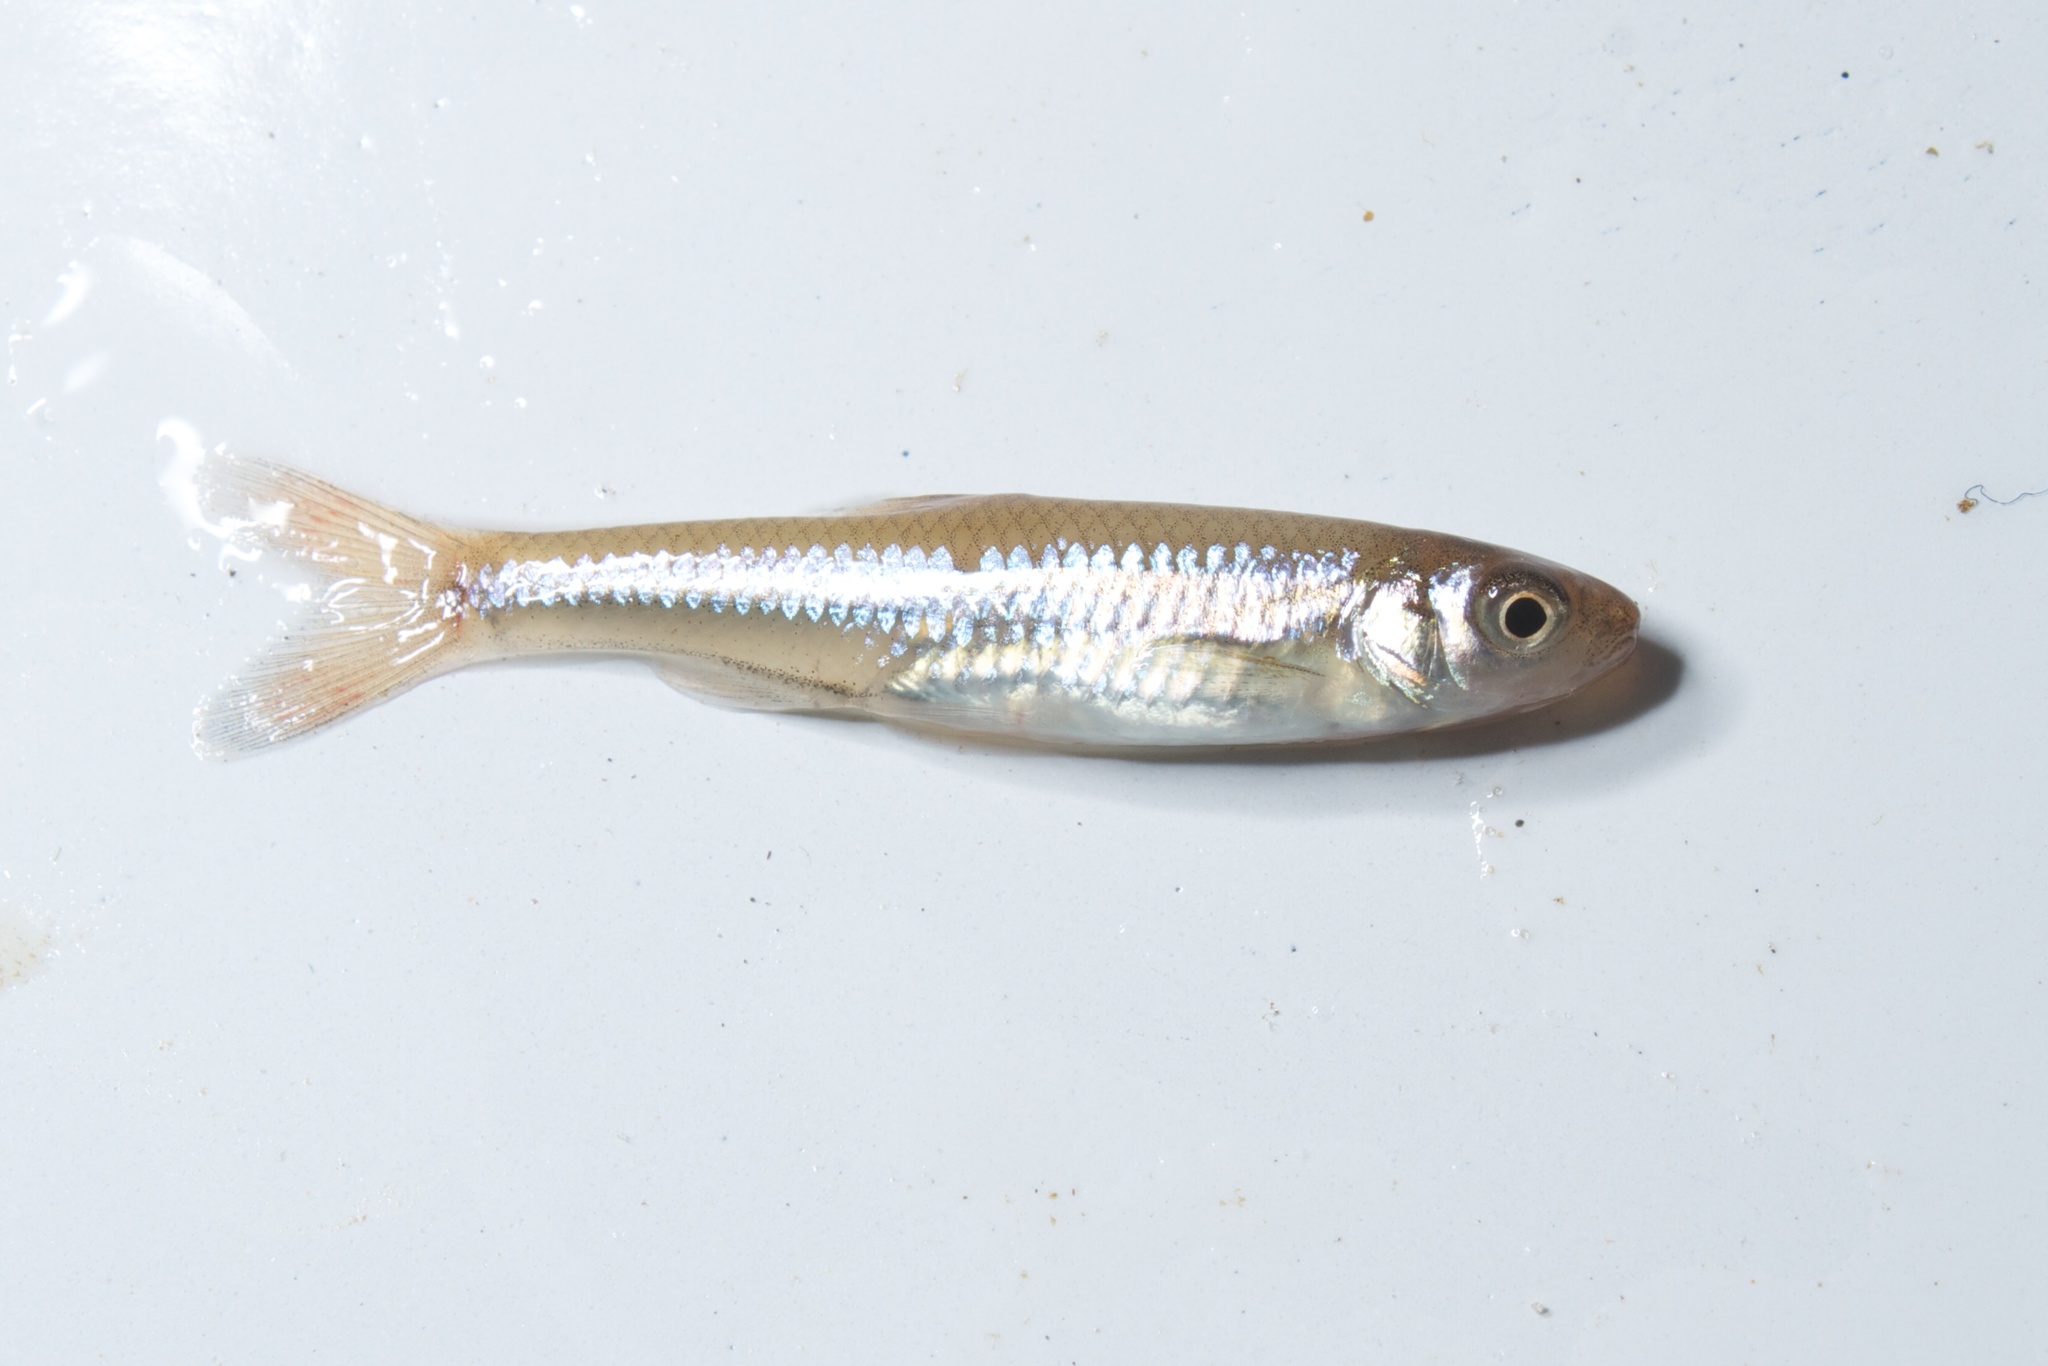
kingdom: Animalia
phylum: Chordata
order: Cypriniformes
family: Cyprinidae
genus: Notropis
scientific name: Notropis
